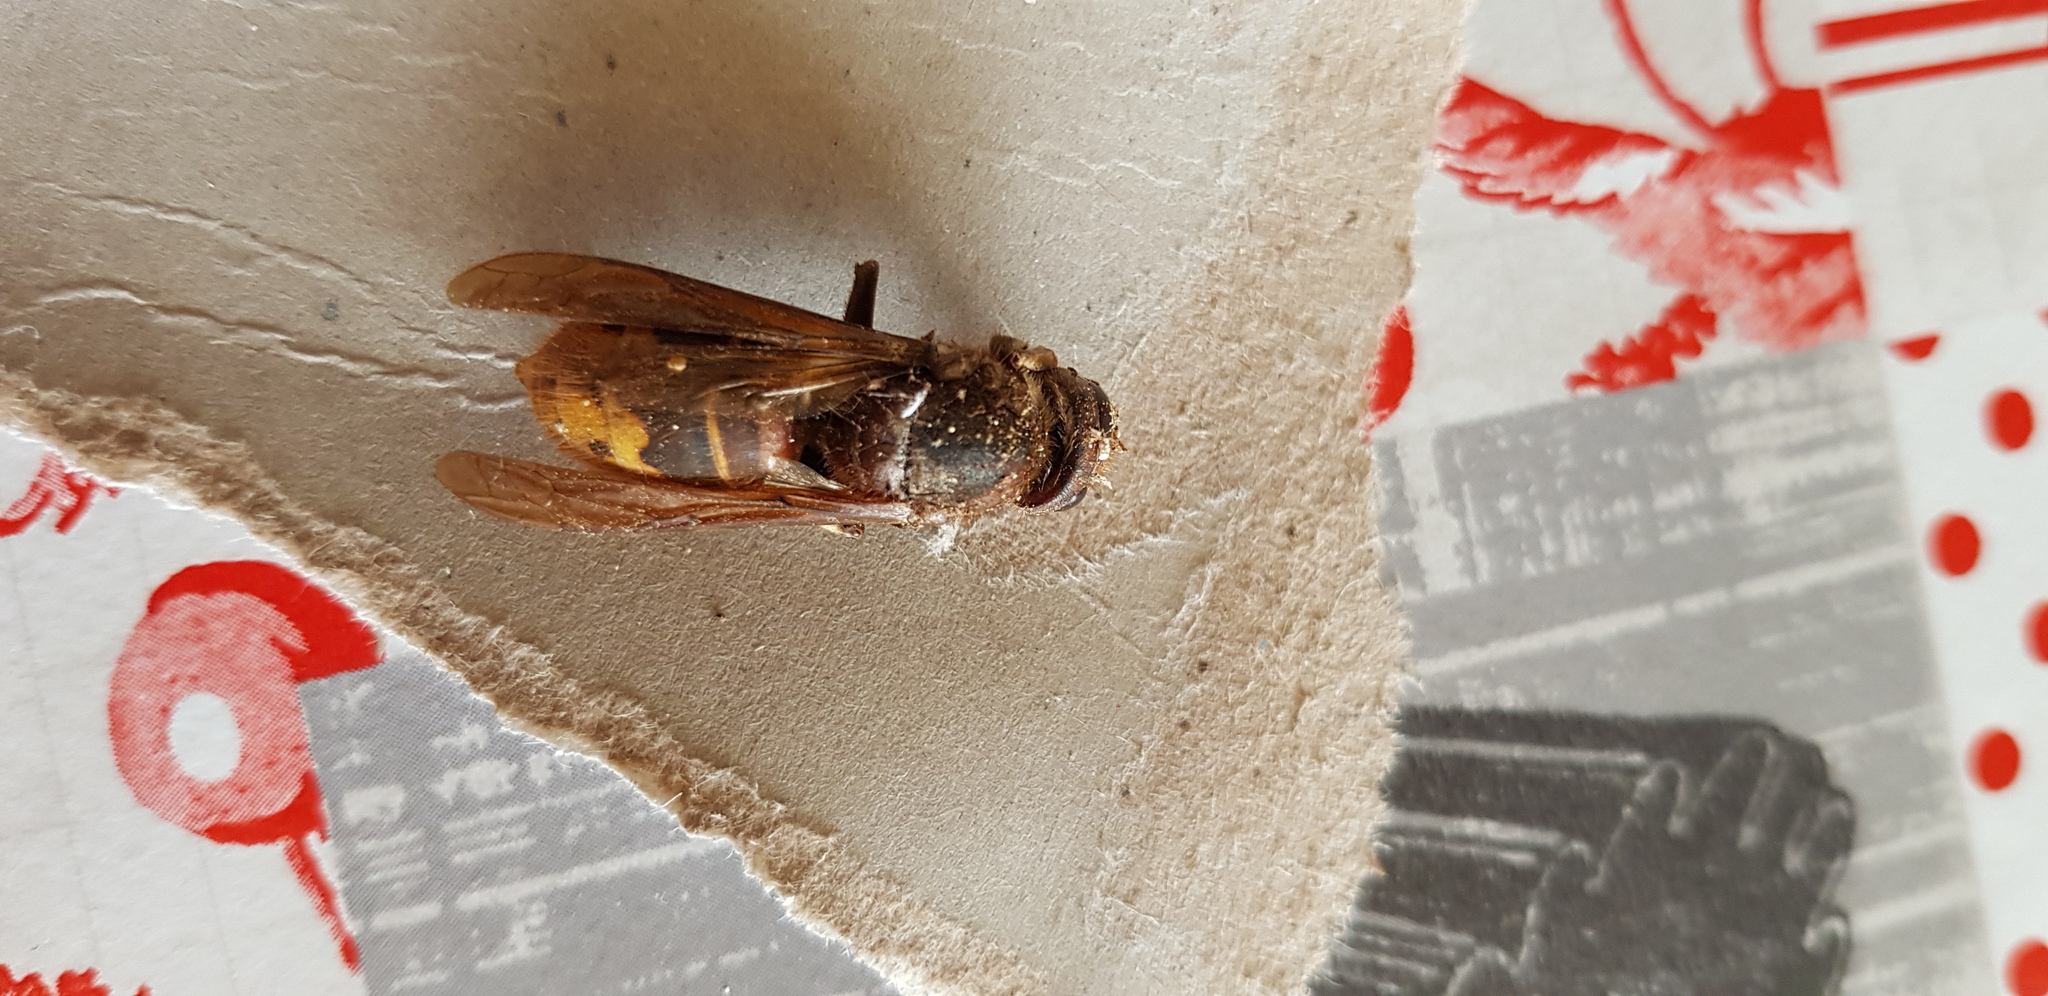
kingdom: Animalia
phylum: Arthropoda
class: Insecta
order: Hymenoptera
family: Vespidae
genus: Vespa
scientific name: Vespa crabro
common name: Hornet
